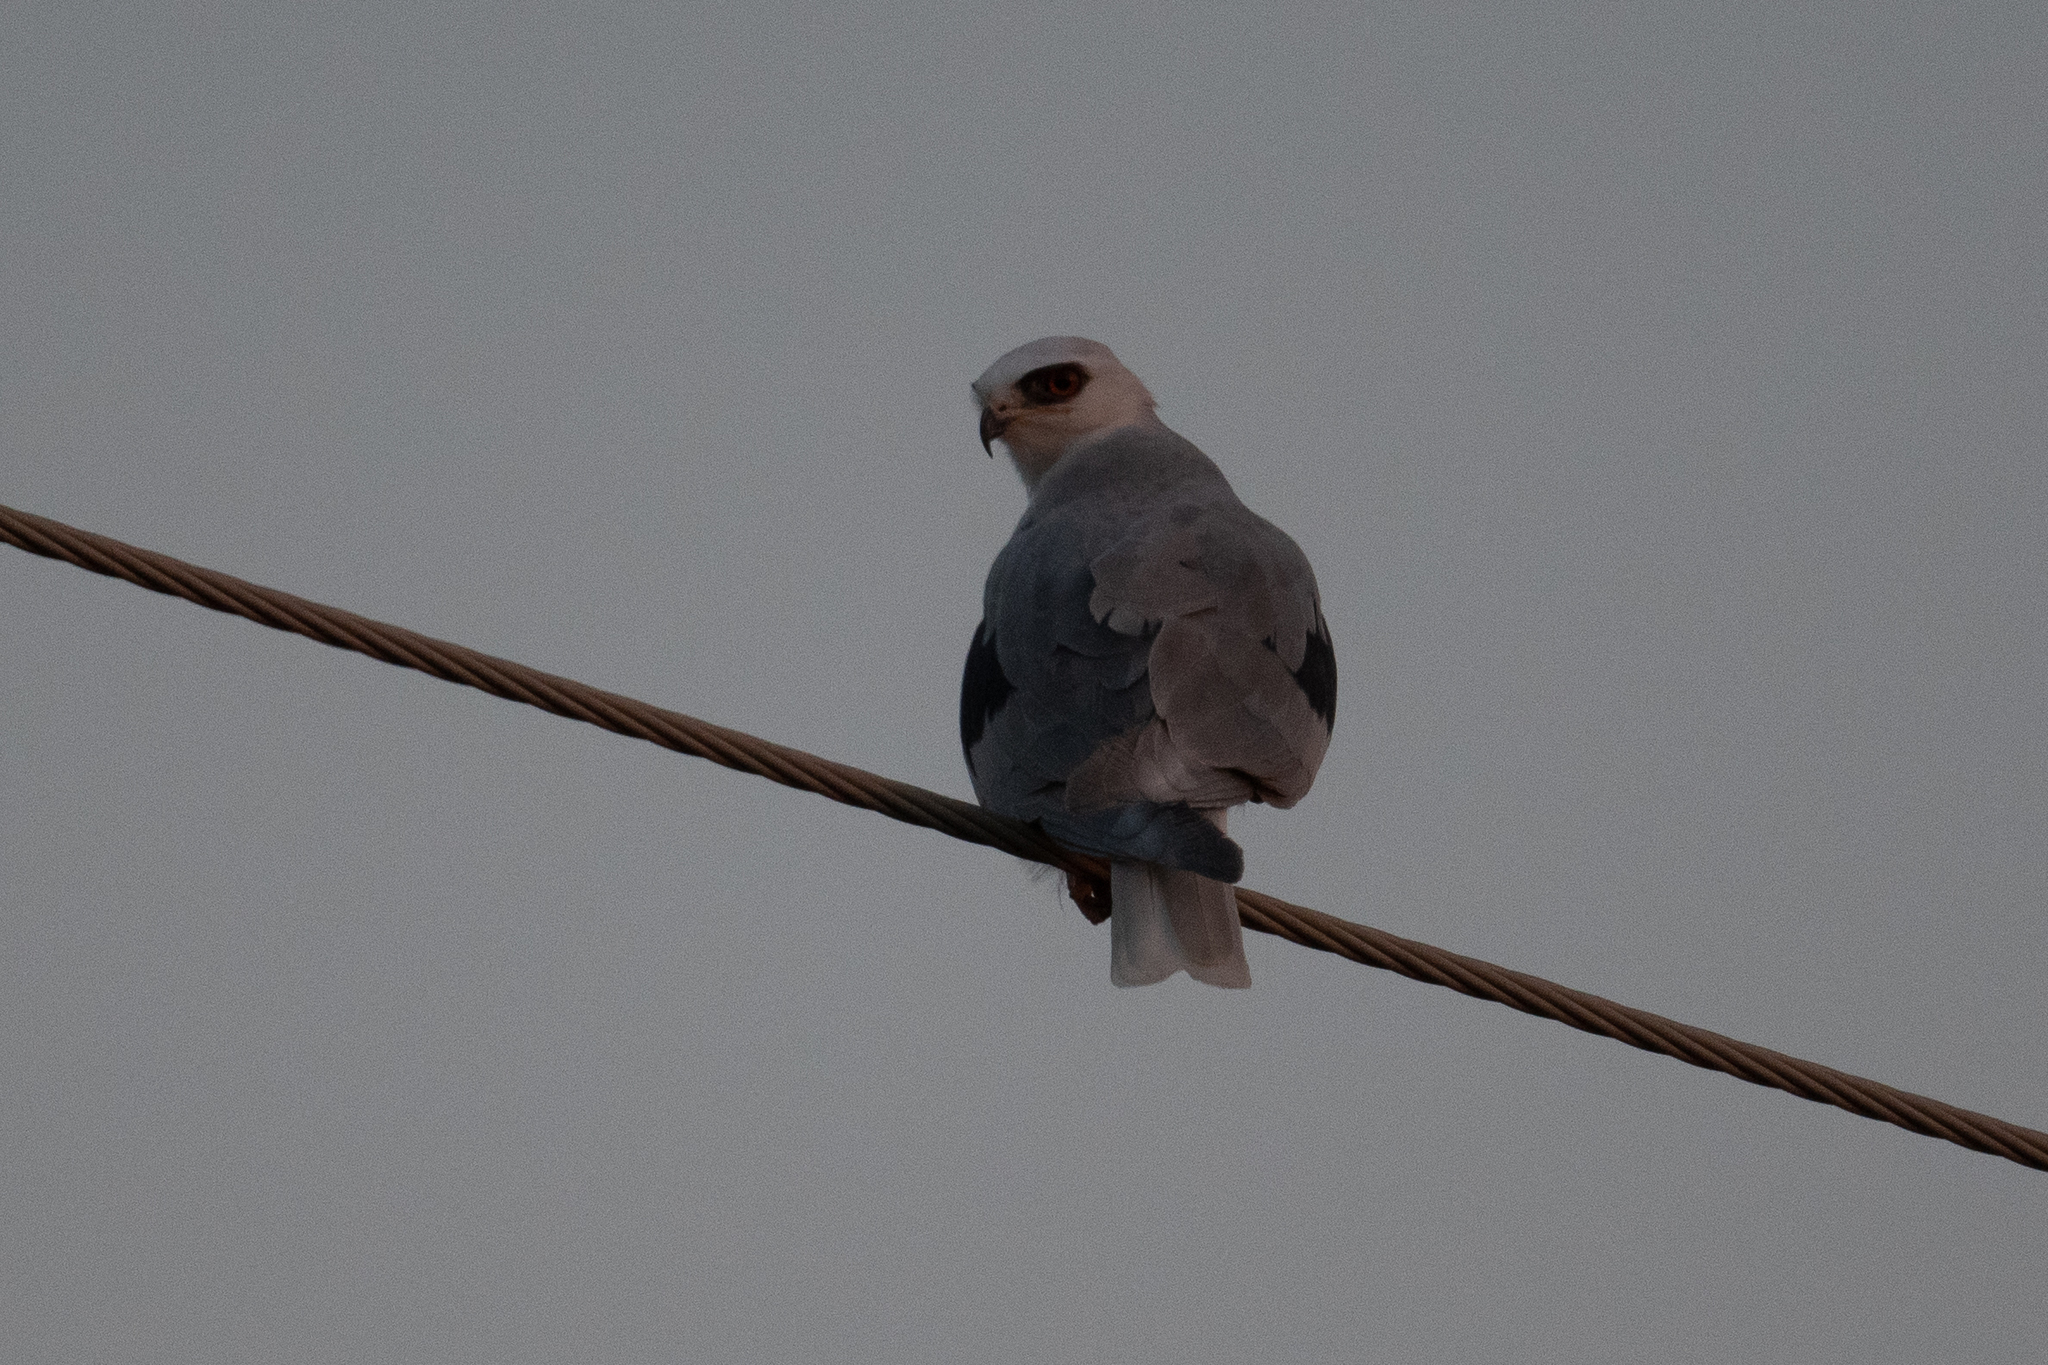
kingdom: Animalia
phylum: Chordata
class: Aves
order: Accipitriformes
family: Accipitridae
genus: Elanus
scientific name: Elanus leucurus
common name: White-tailed kite
